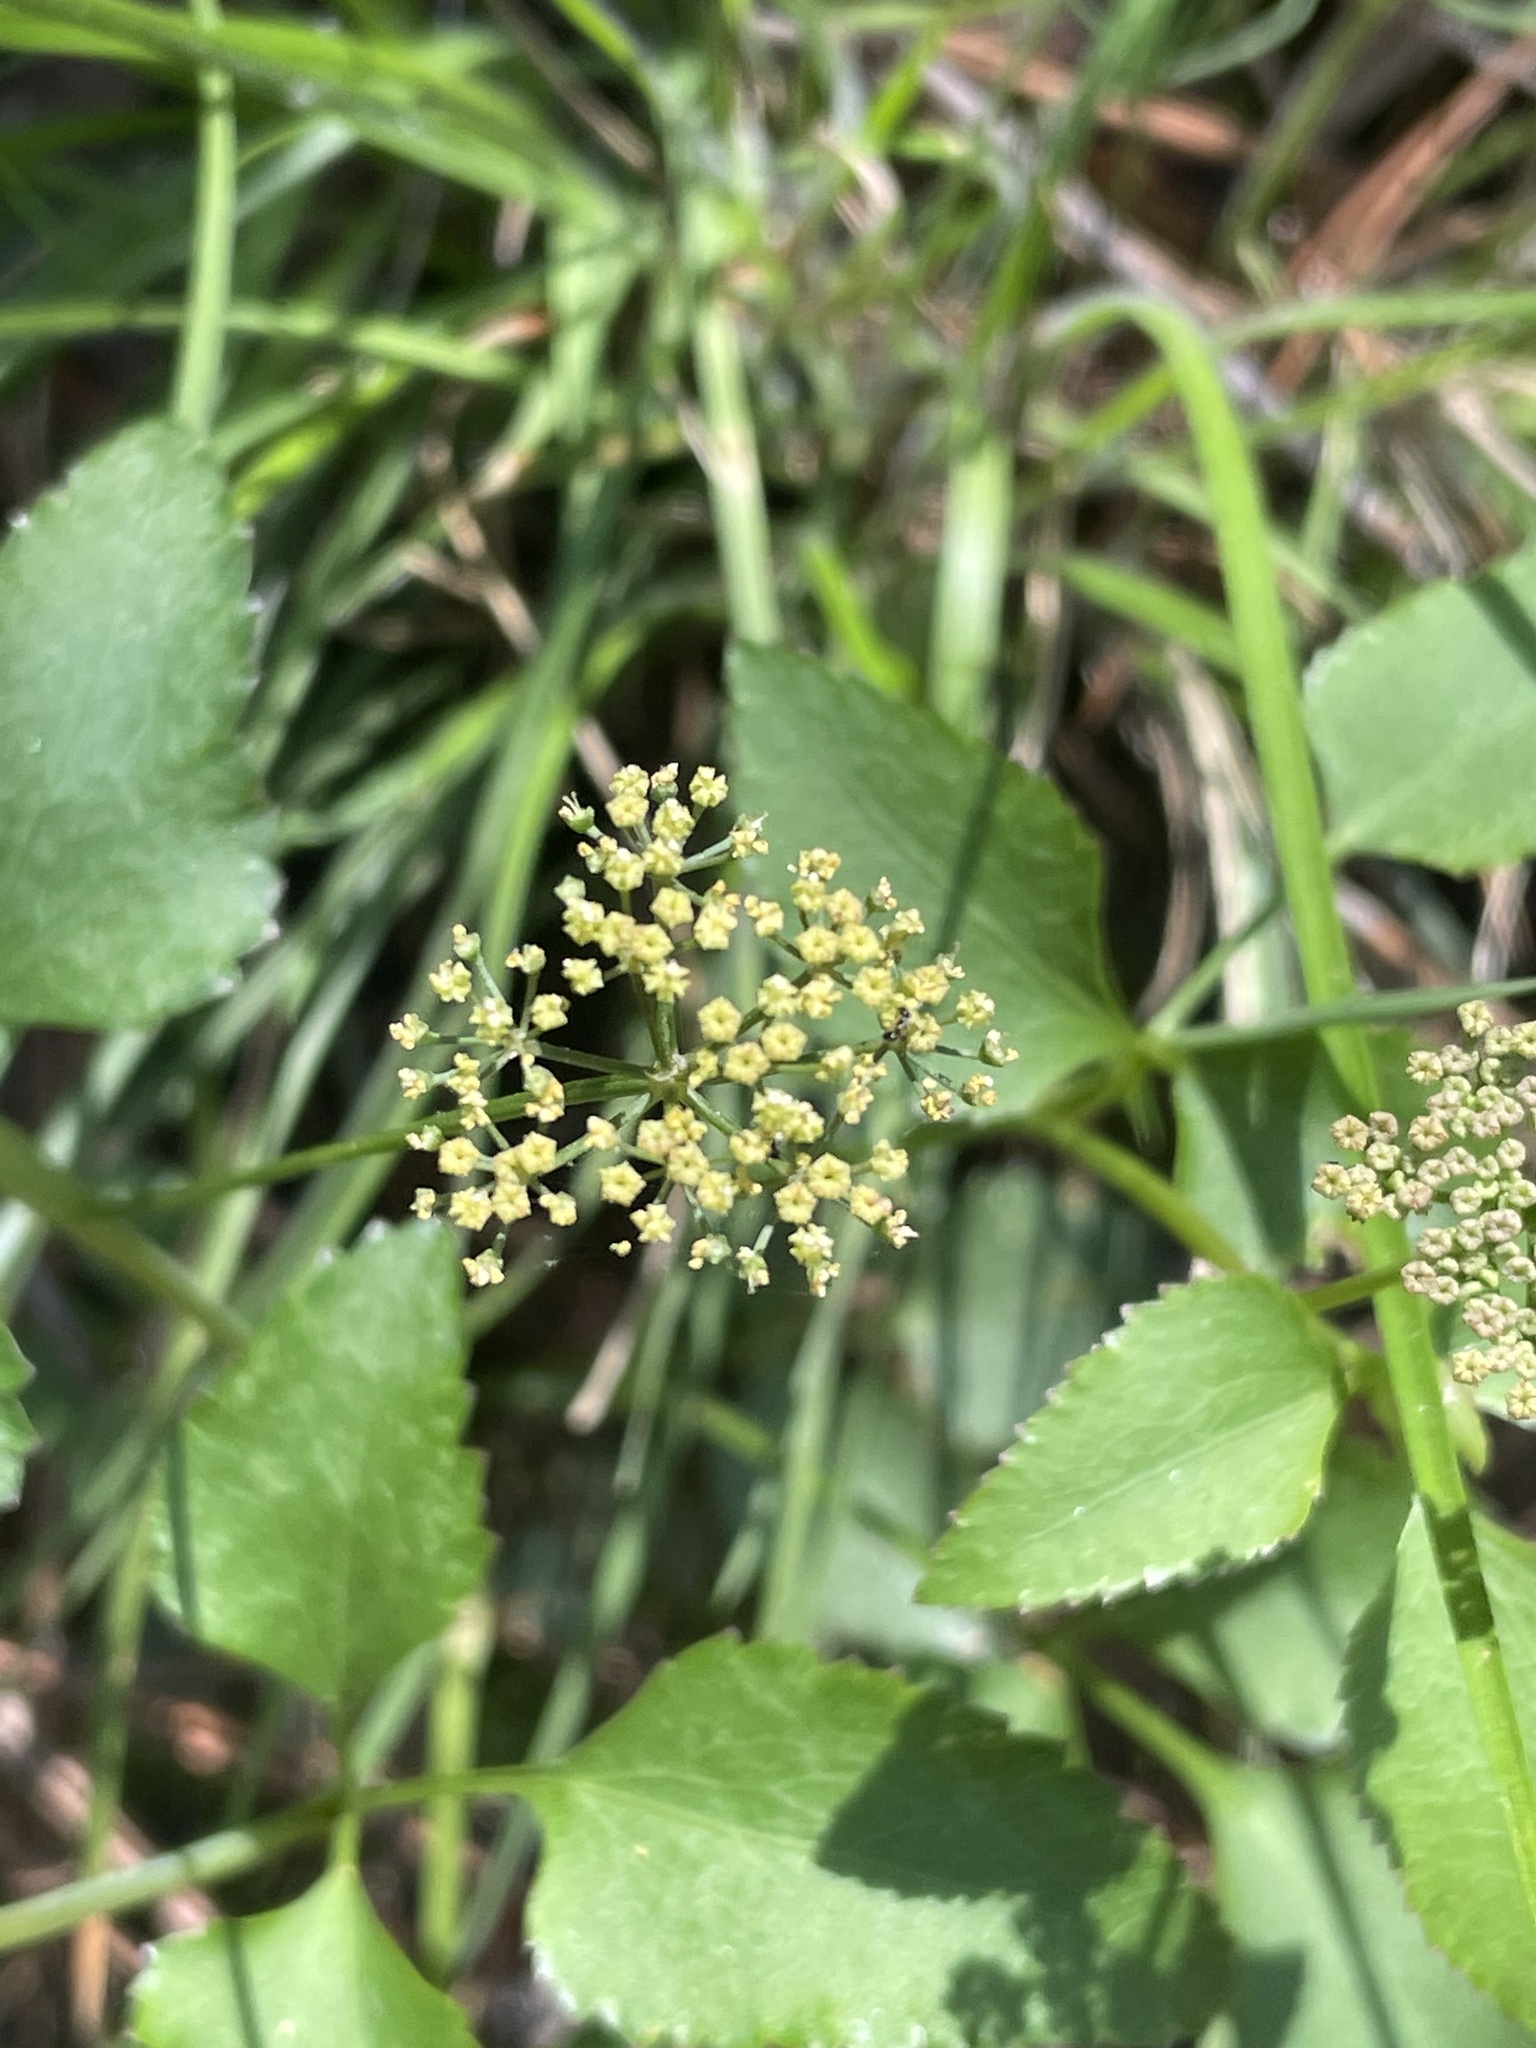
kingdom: Plantae
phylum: Tracheophyta
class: Magnoliopsida
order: Apiales
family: Apiaceae
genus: Thaspium
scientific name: Thaspium trifoliatum
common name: Purple meadow-parsnip
